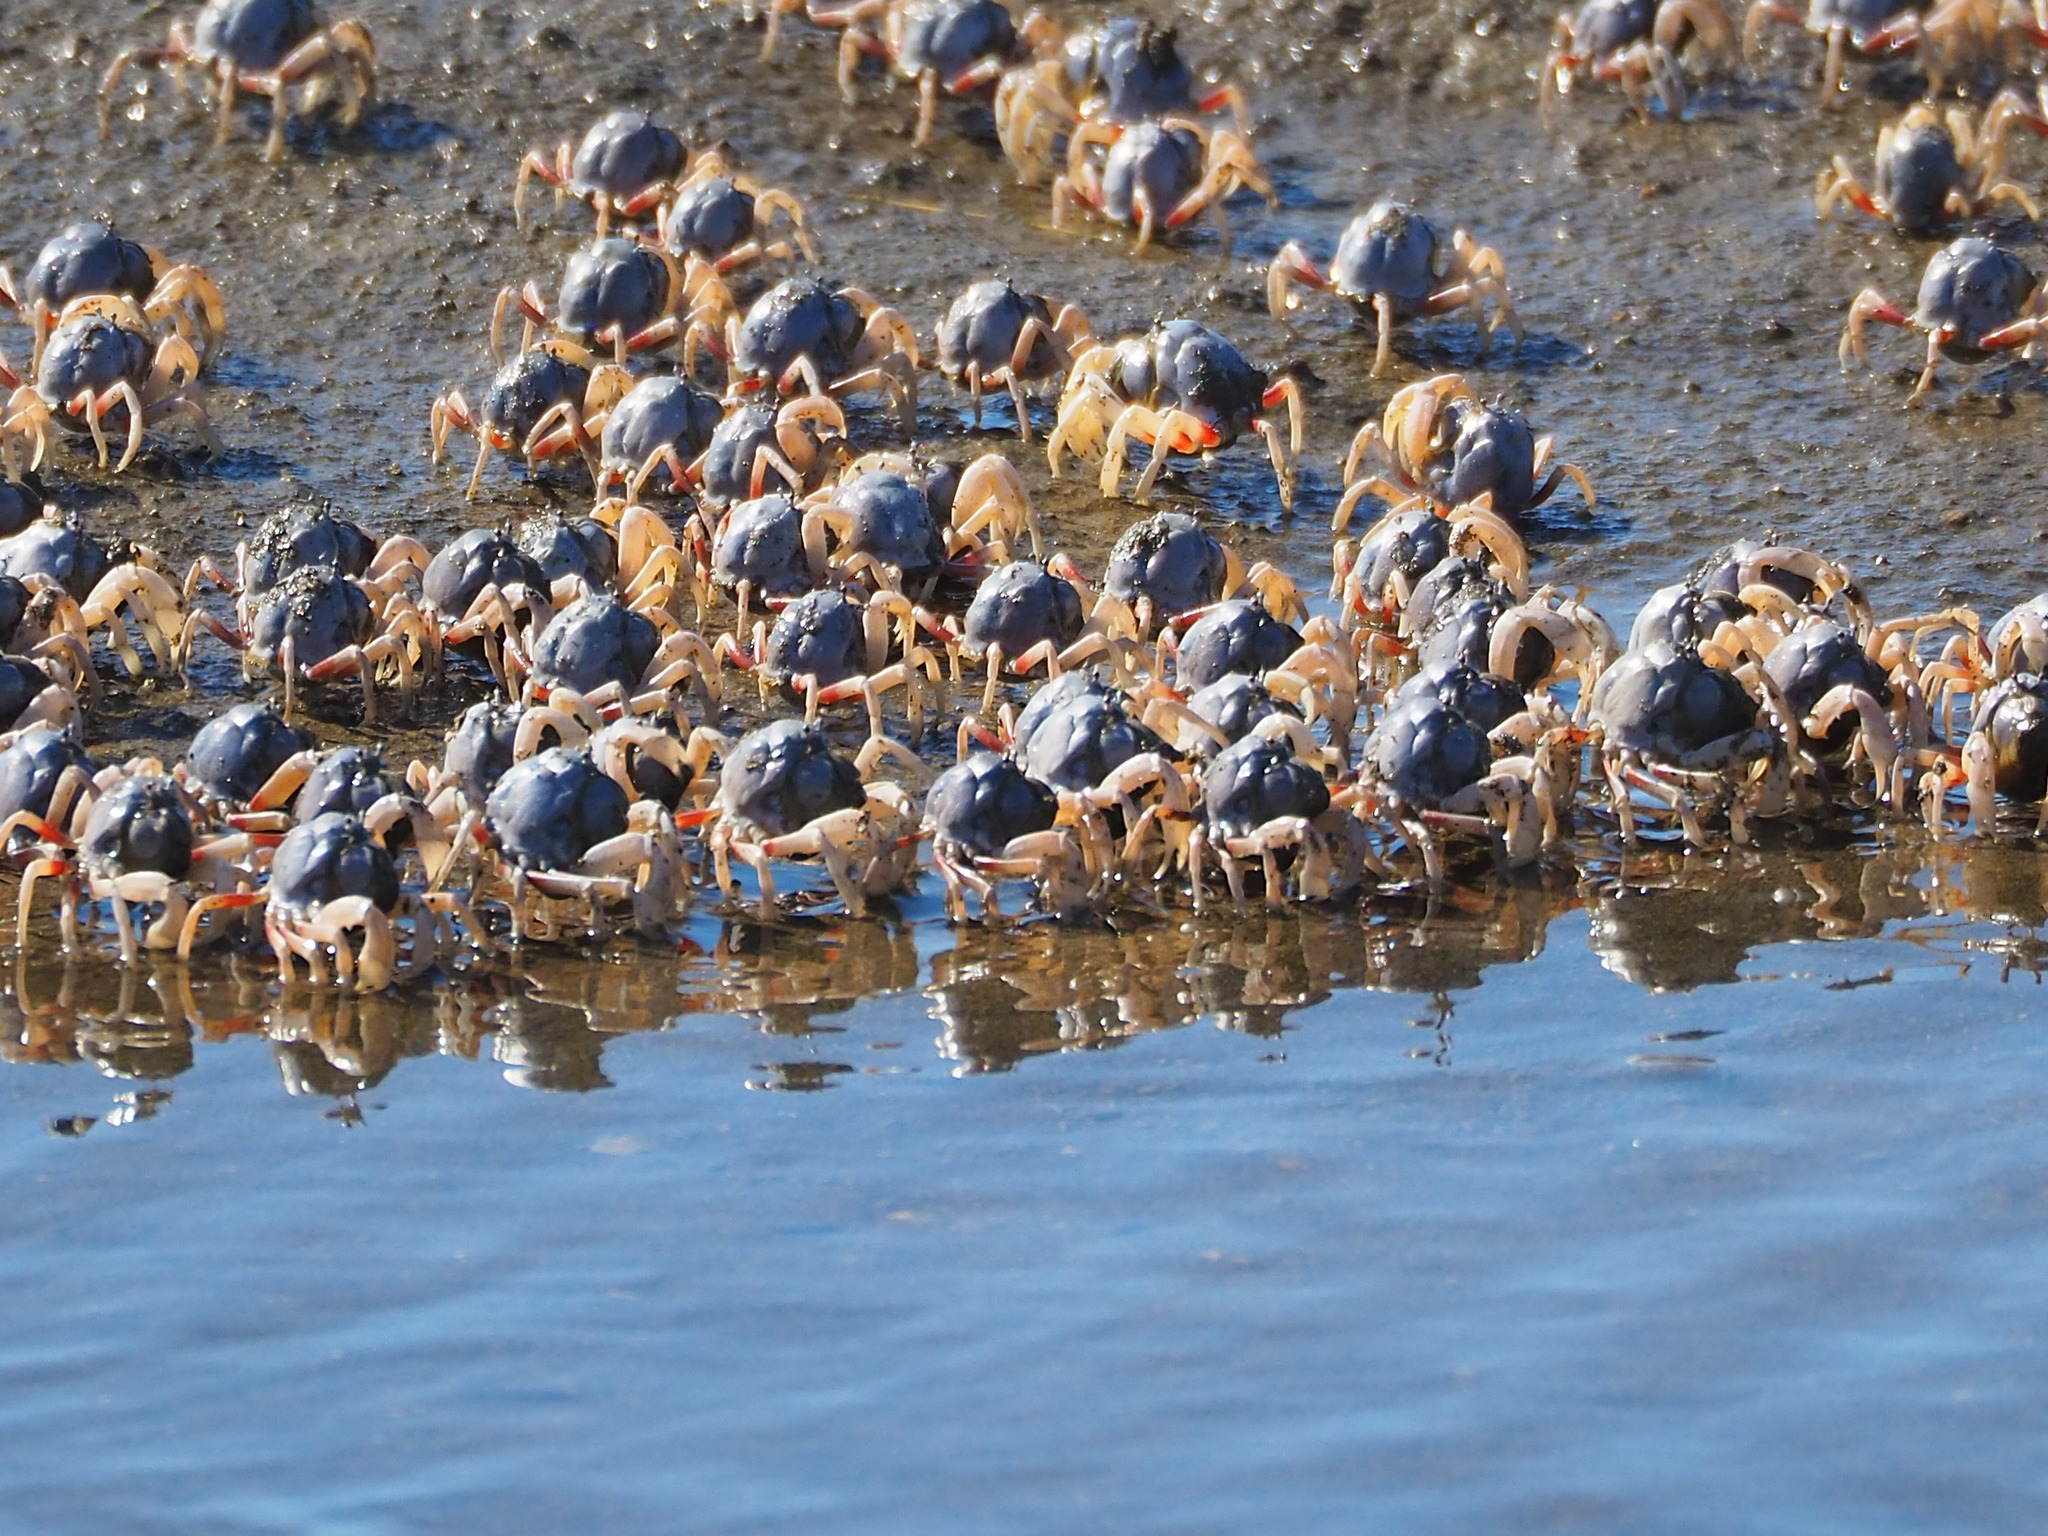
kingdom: Animalia
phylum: Arthropoda
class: Malacostraca
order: Decapoda
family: Mictyridae
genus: Mictyris
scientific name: Mictyris brevidactylus
